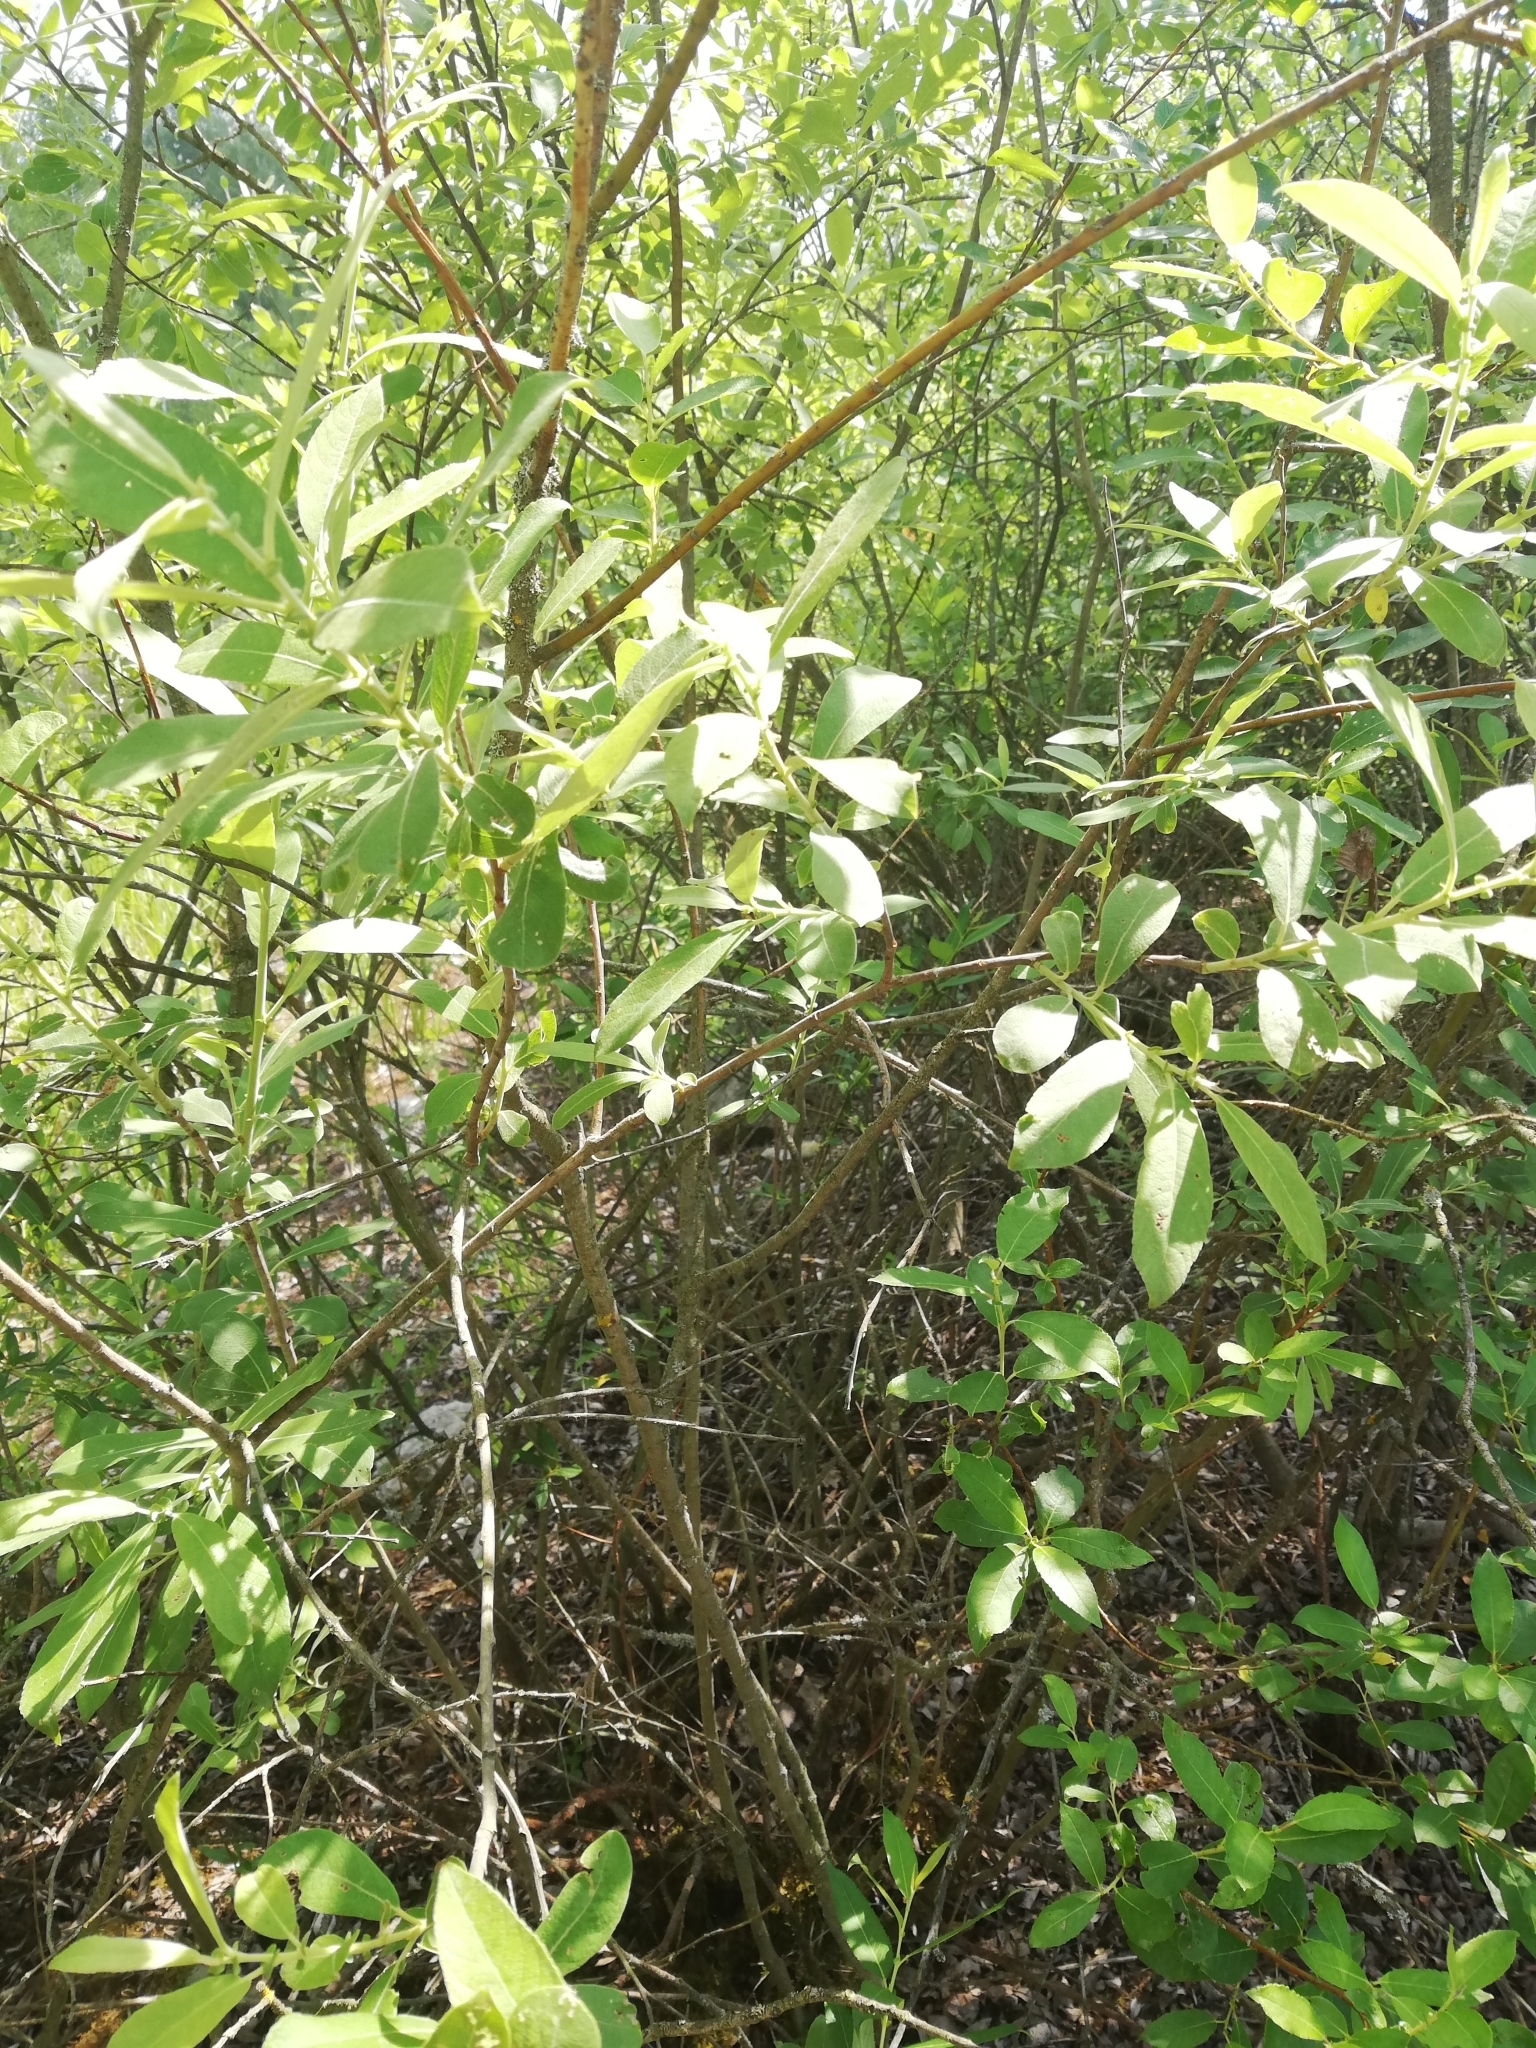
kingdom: Plantae
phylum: Tracheophyta
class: Magnoliopsida
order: Malpighiales
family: Salicaceae
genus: Salix
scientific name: Salix cinerea
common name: Common sallow
